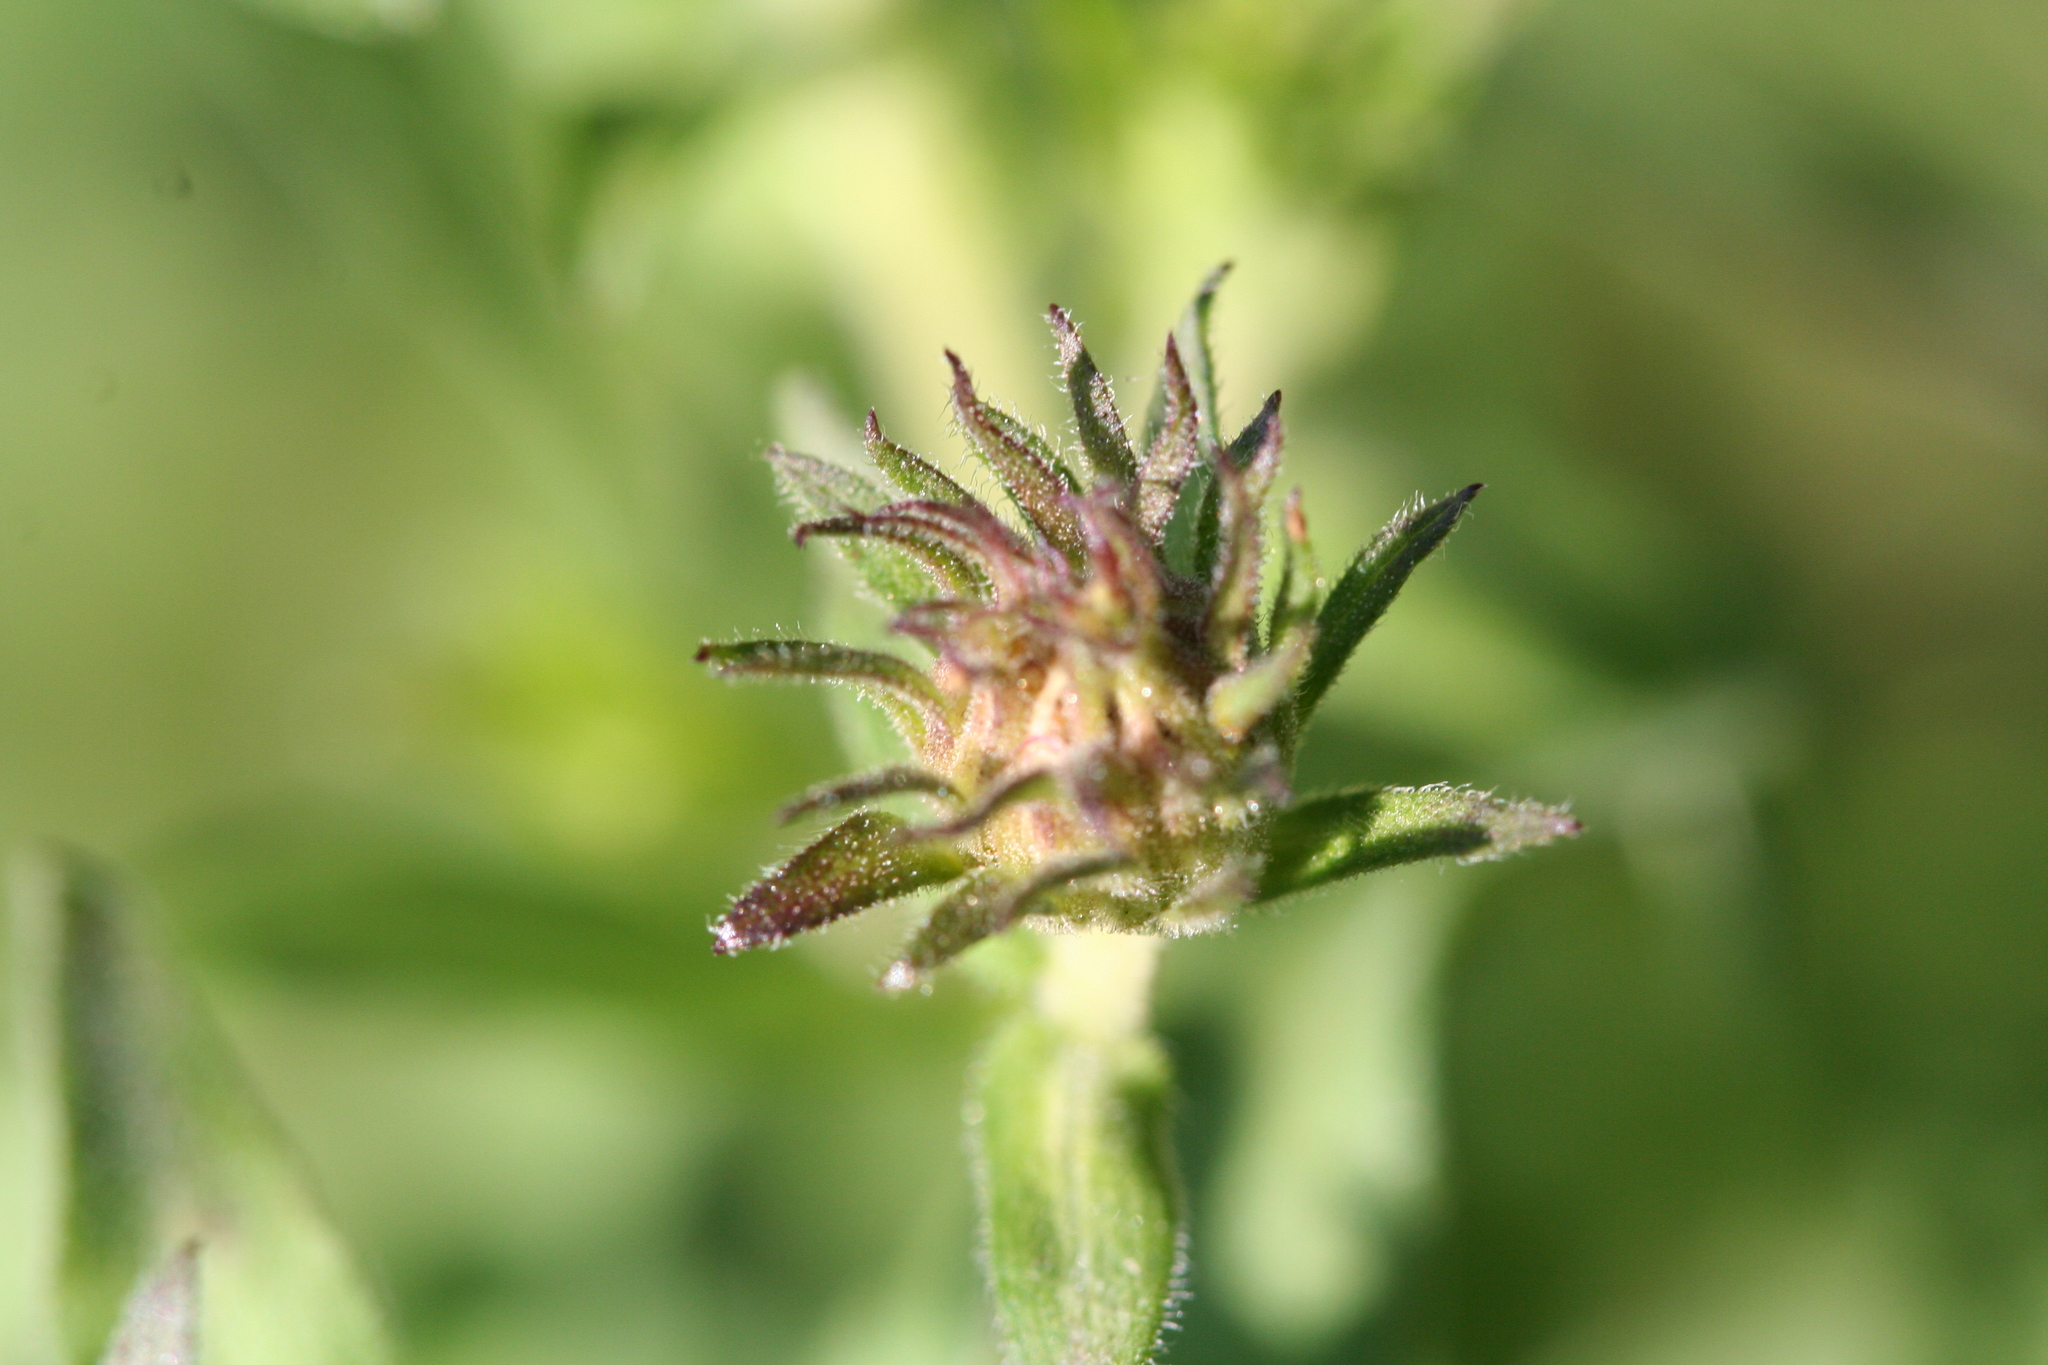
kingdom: Plantae
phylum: Tracheophyta
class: Magnoliopsida
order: Asterales
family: Asteraceae
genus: Symphyotrichum
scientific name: Symphyotrichum novae-angliae
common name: Michaelmas daisy
